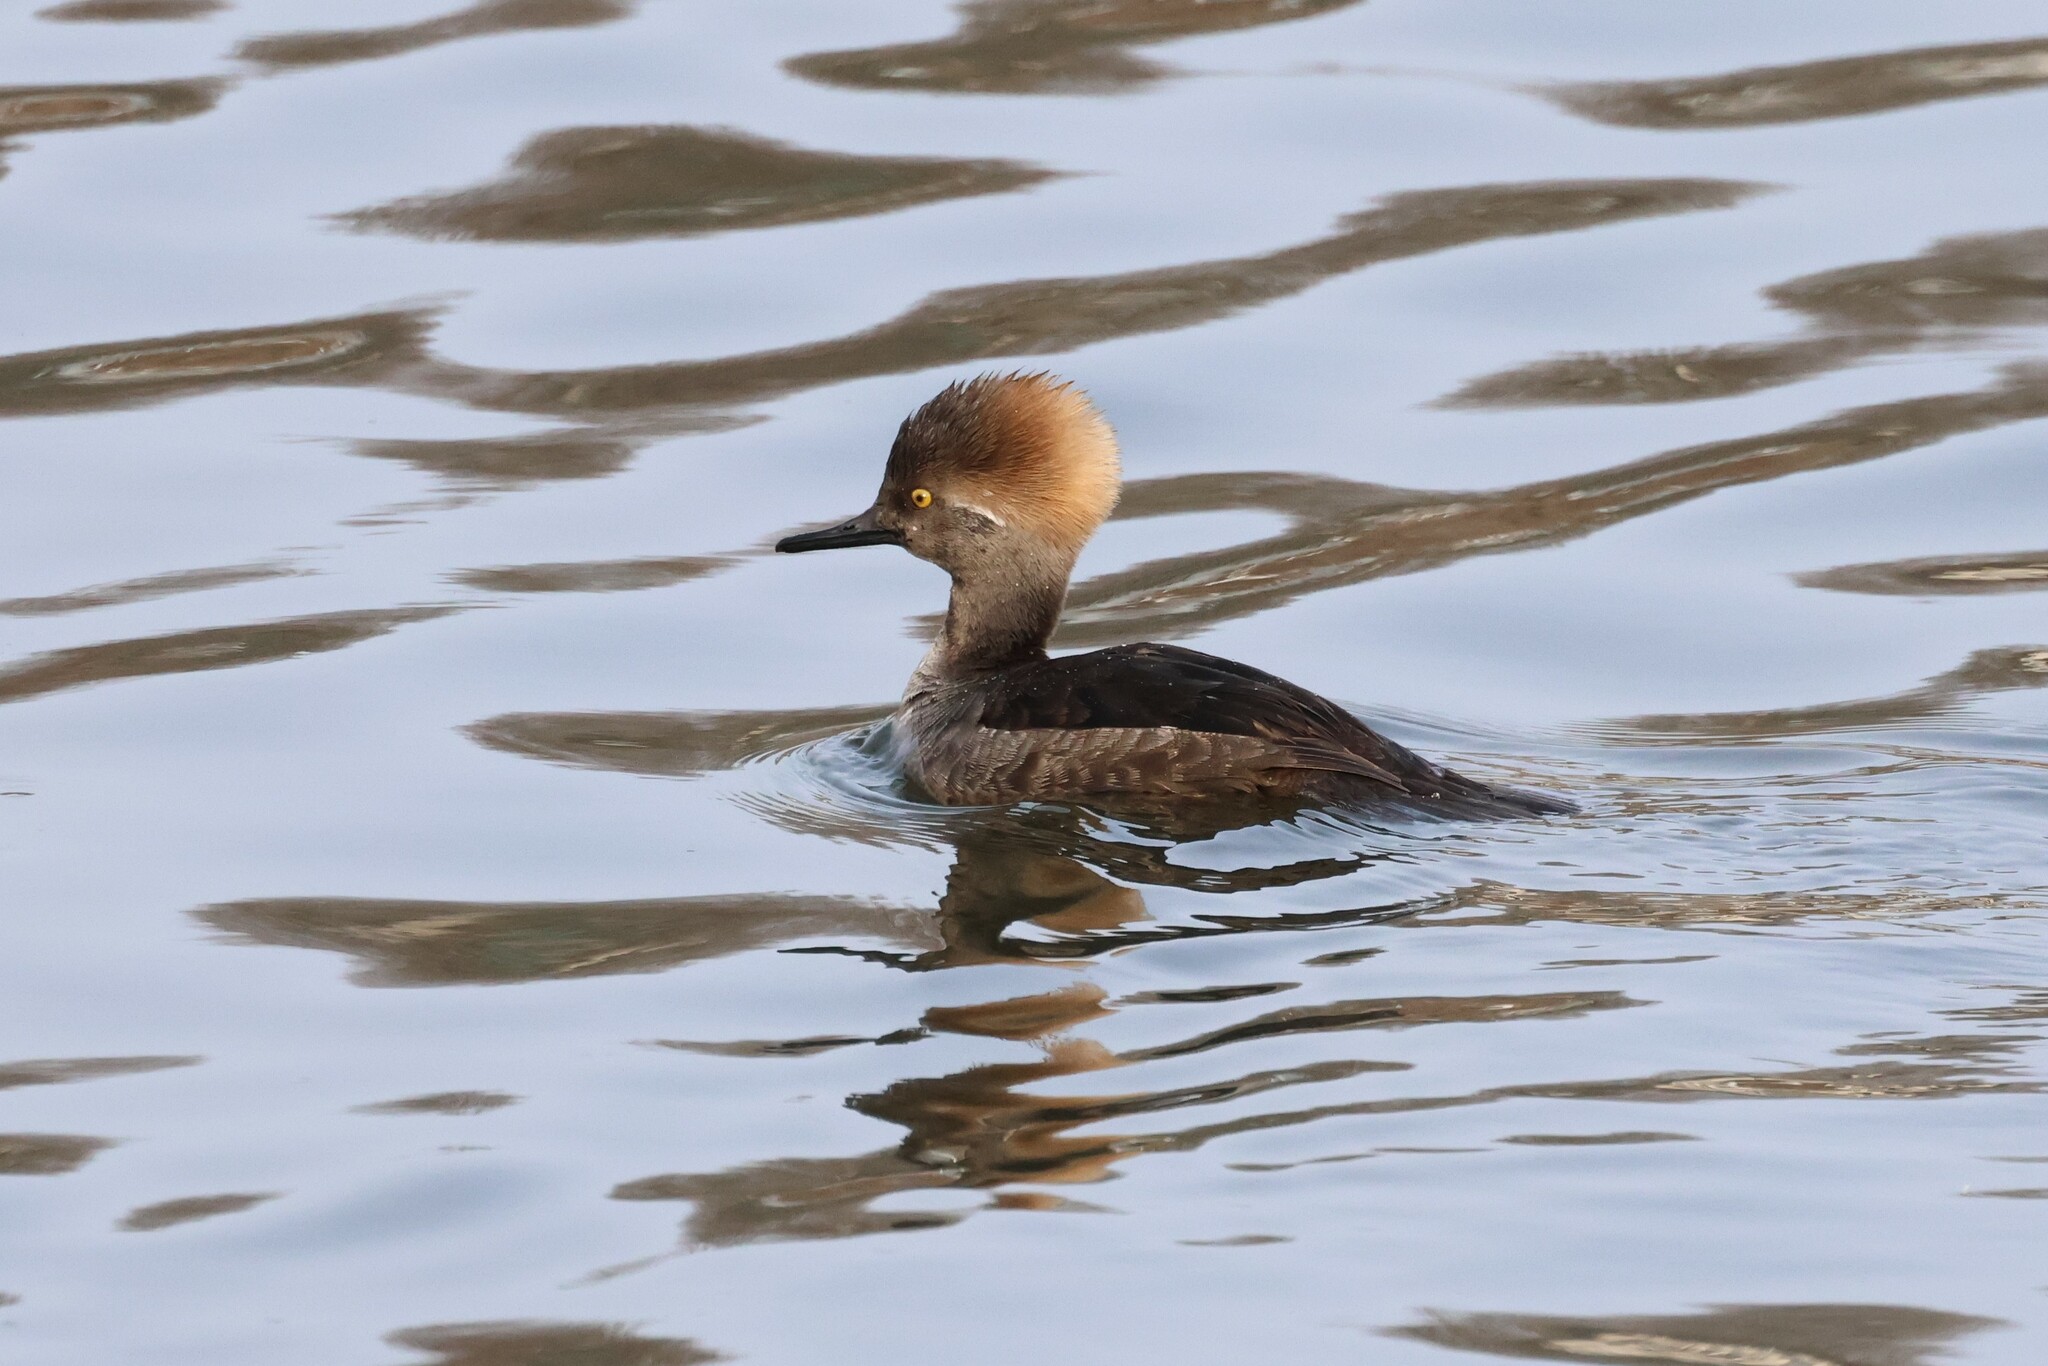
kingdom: Animalia
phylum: Chordata
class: Aves
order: Anseriformes
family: Anatidae
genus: Lophodytes
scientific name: Lophodytes cucullatus
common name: Hooded merganser
